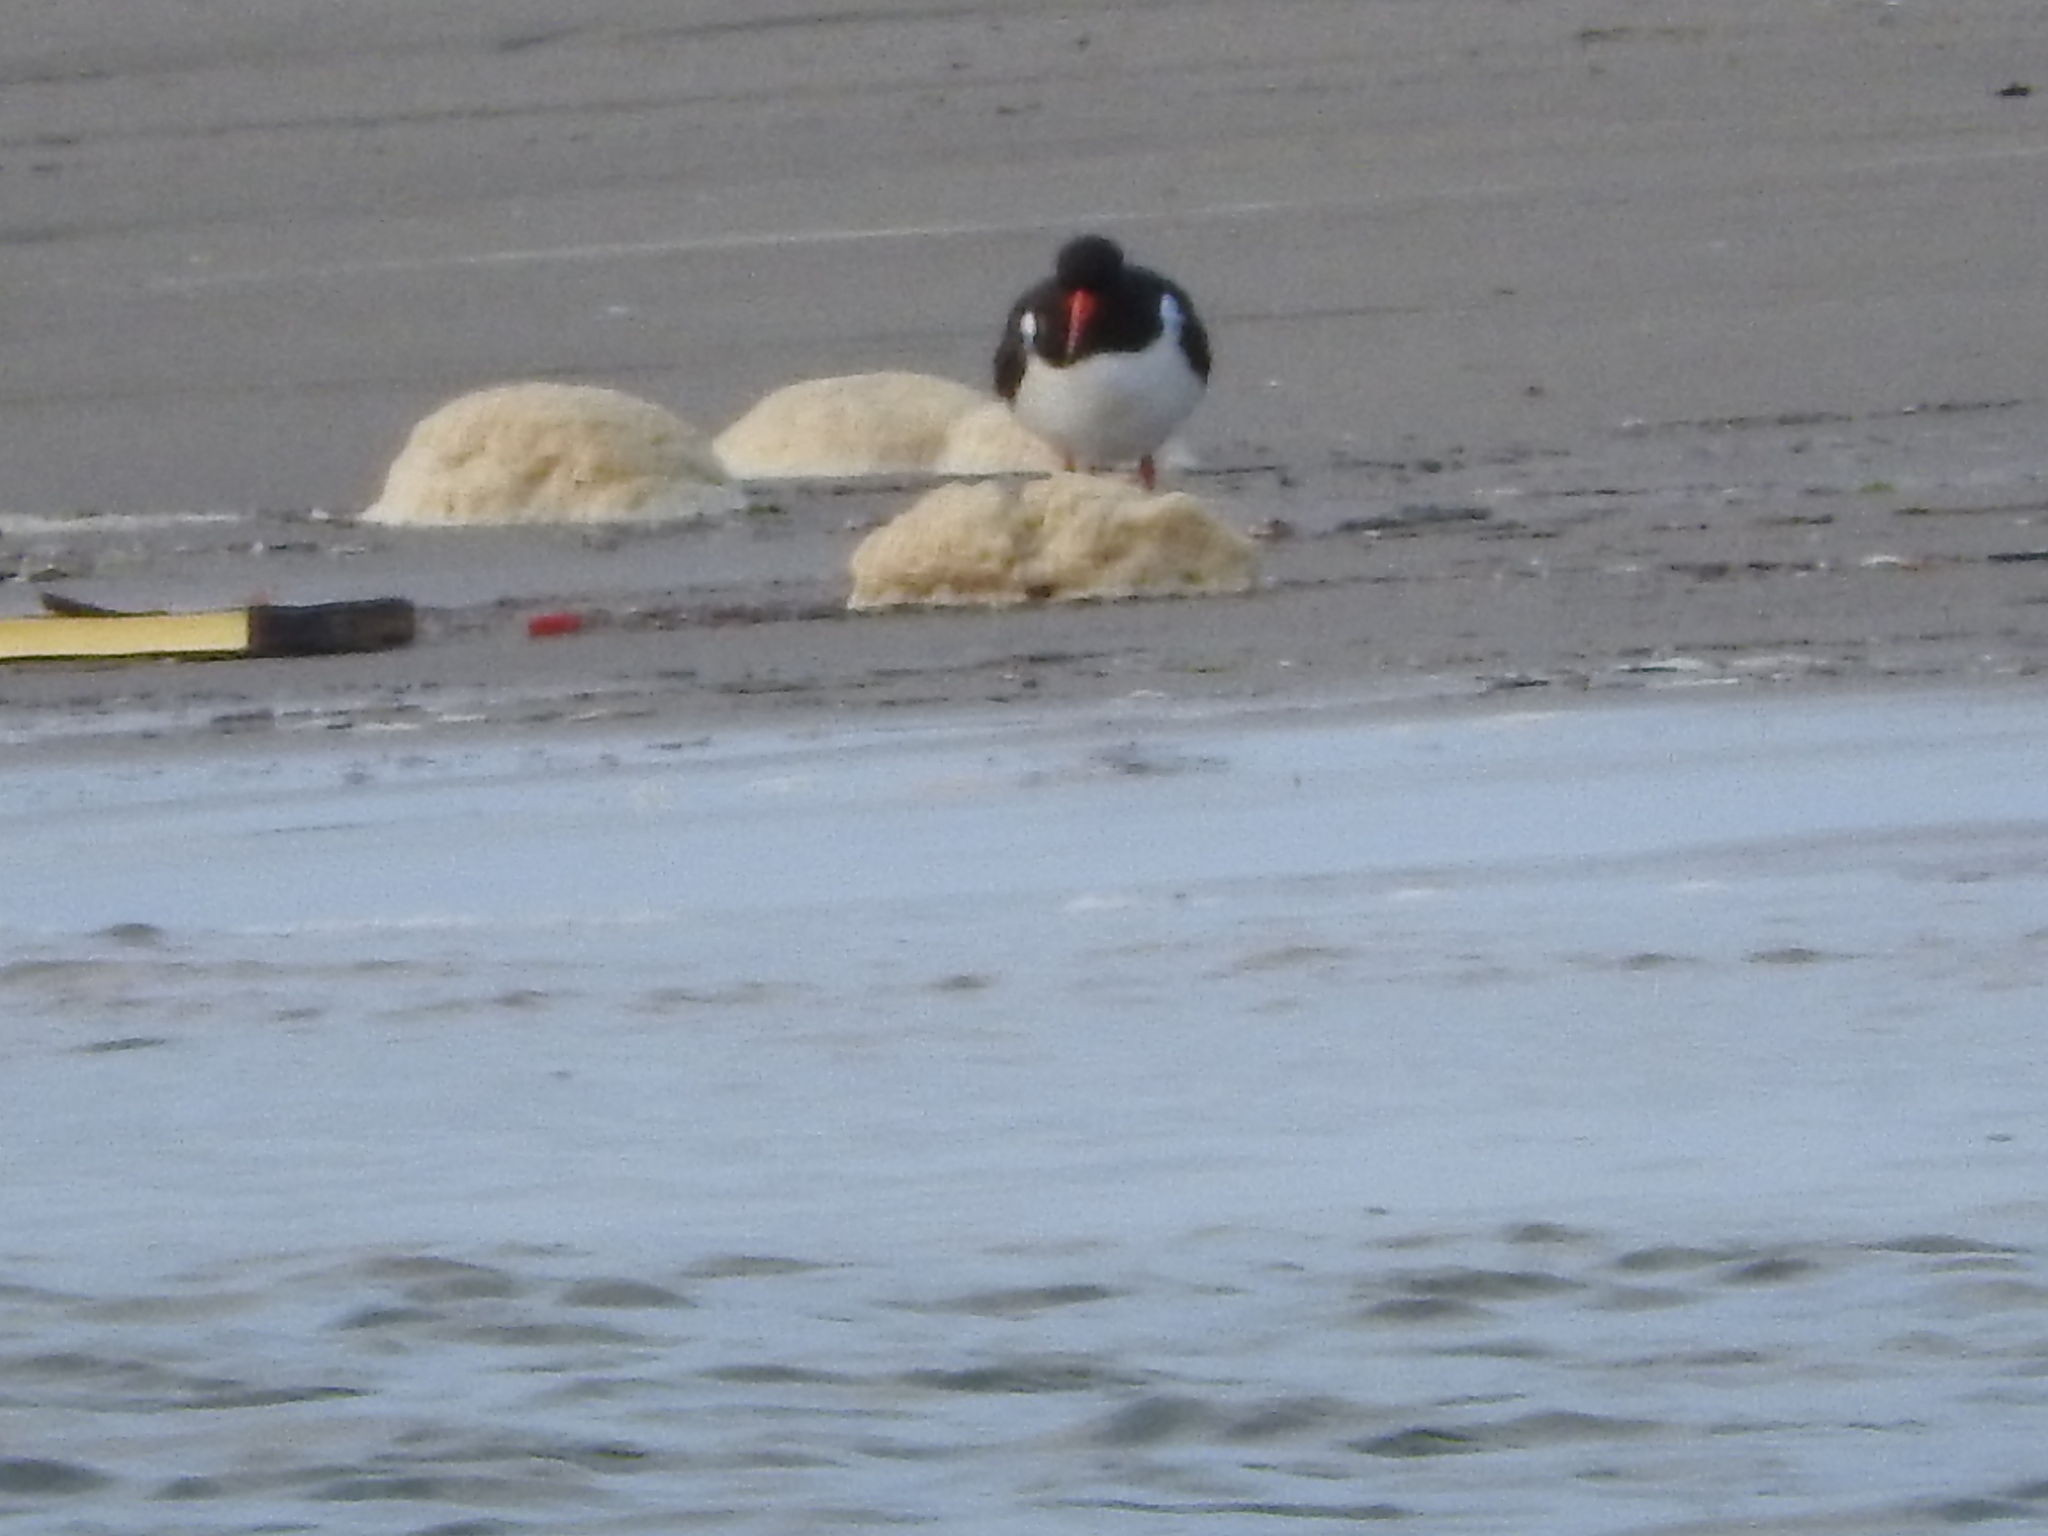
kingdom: Animalia
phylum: Chordata
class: Aves
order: Charadriiformes
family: Haematopodidae
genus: Haematopus
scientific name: Haematopus ostralegus
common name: Eurasian oystercatcher
